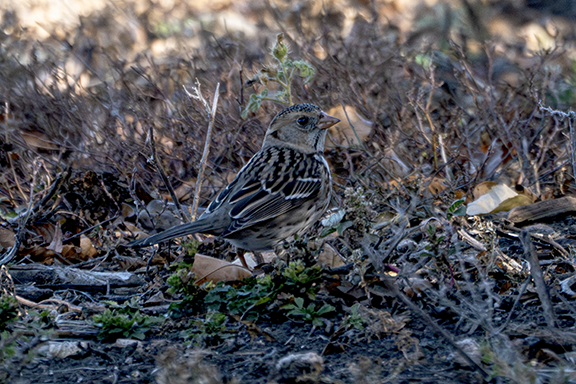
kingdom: Animalia
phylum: Chordata
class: Aves
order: Passeriformes
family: Passerellidae
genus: Zonotrichia
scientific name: Zonotrichia querula
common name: Harris's sparrow
